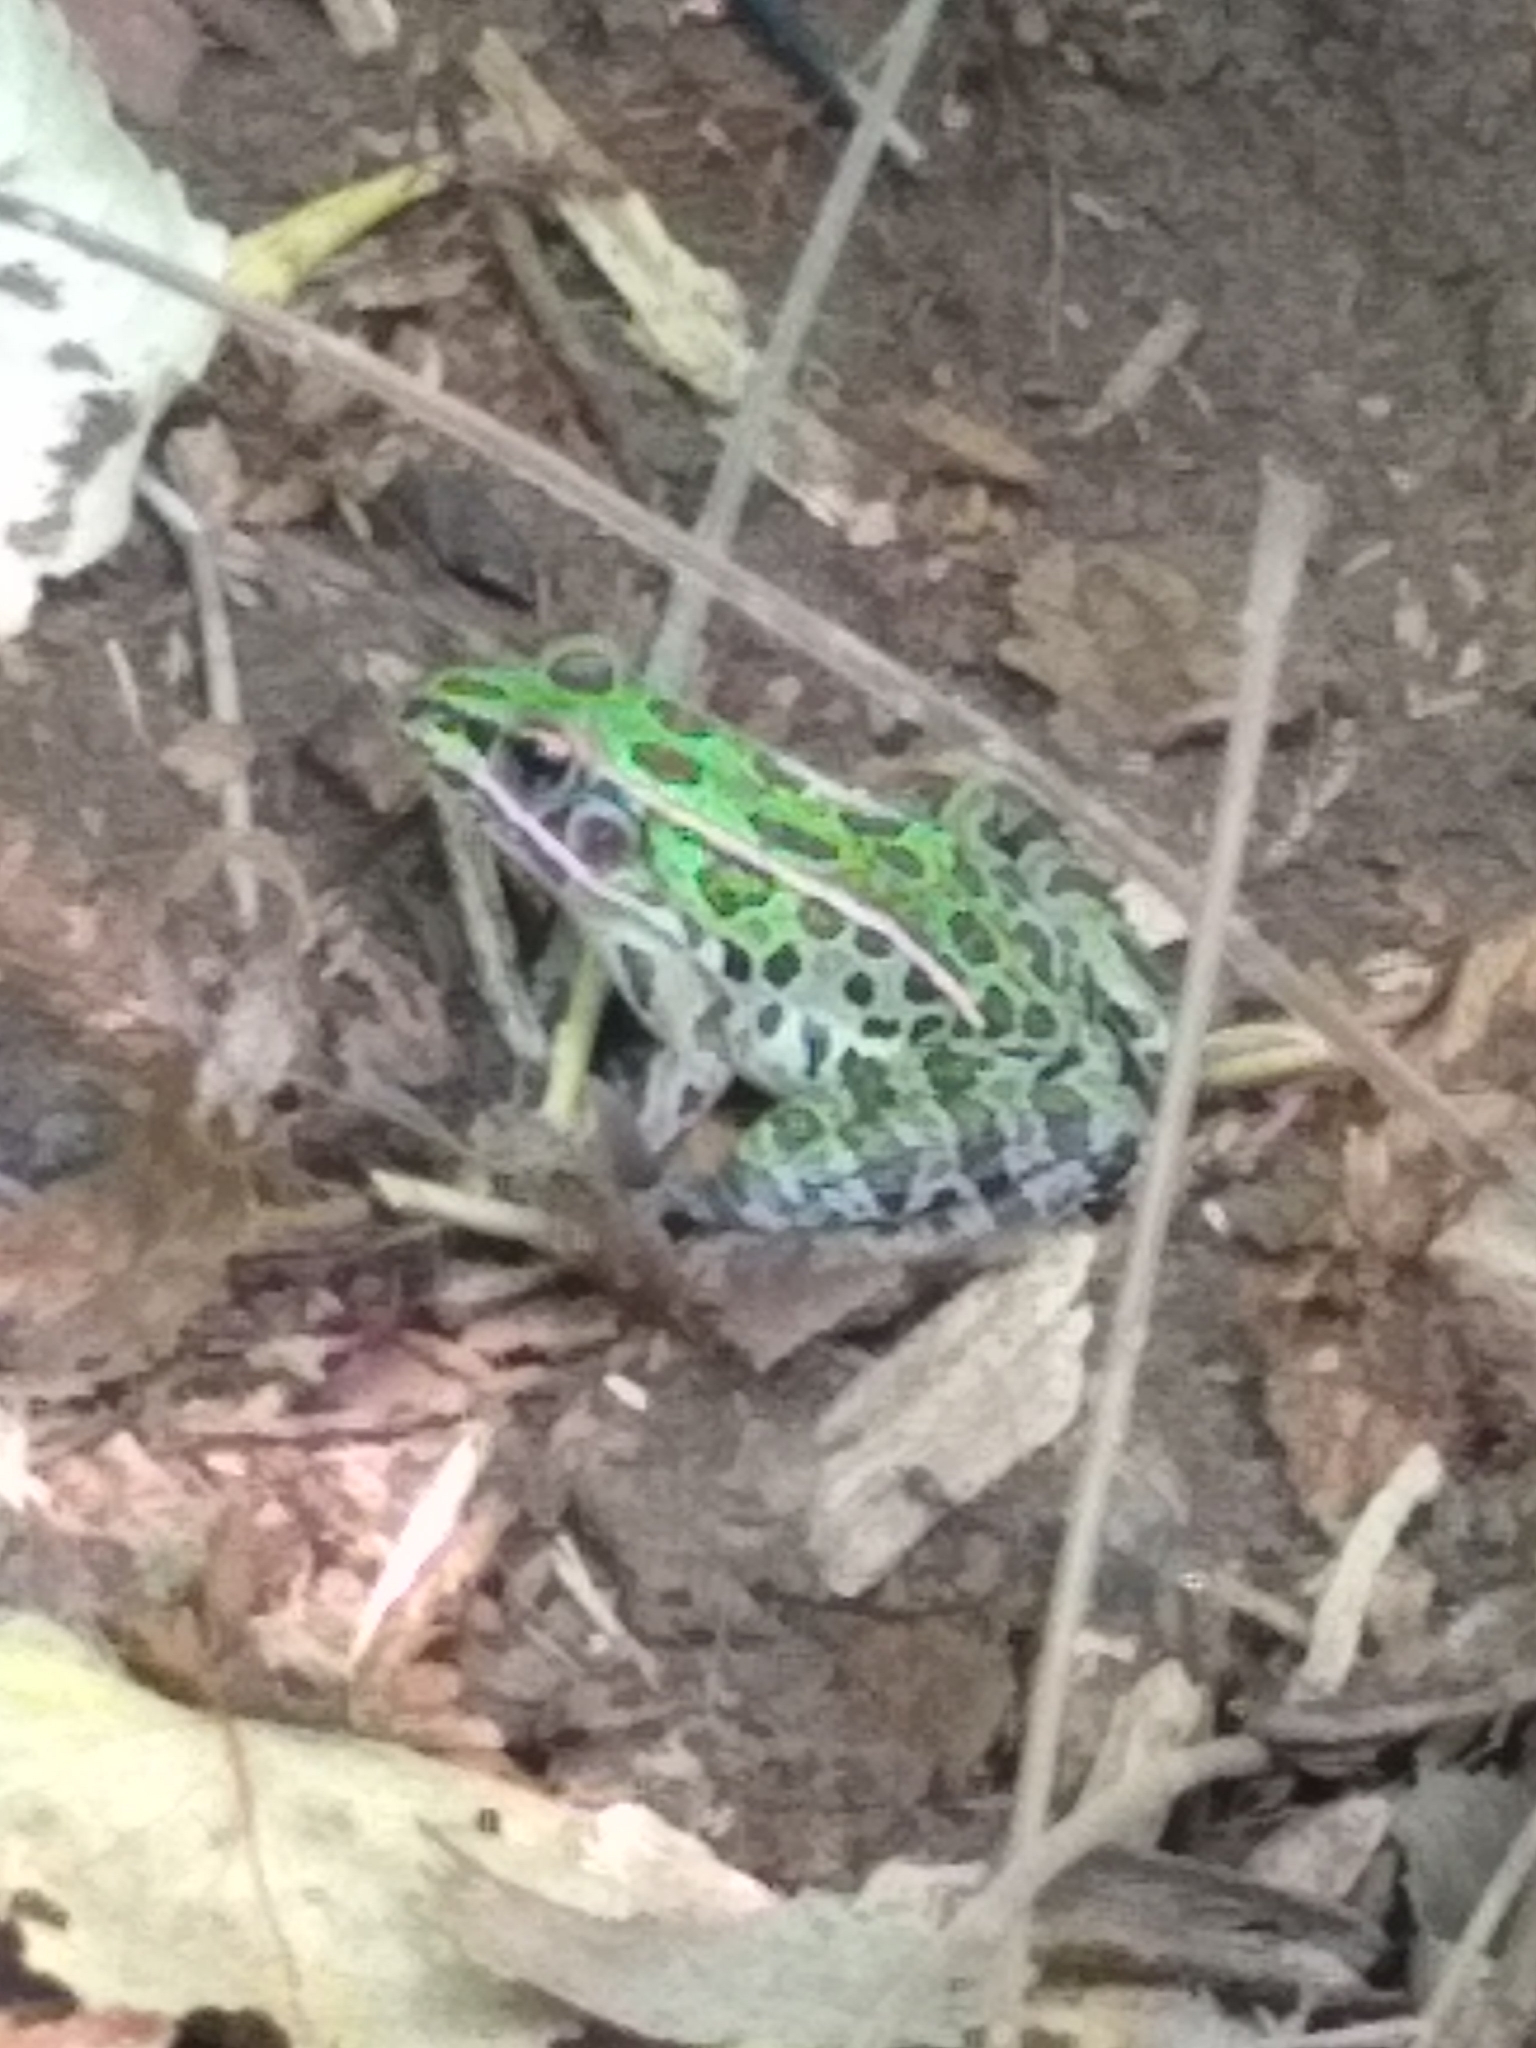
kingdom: Animalia
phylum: Chordata
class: Amphibia
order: Anura
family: Ranidae
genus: Lithobates
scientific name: Lithobates pipiens
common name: Northern leopard frog
